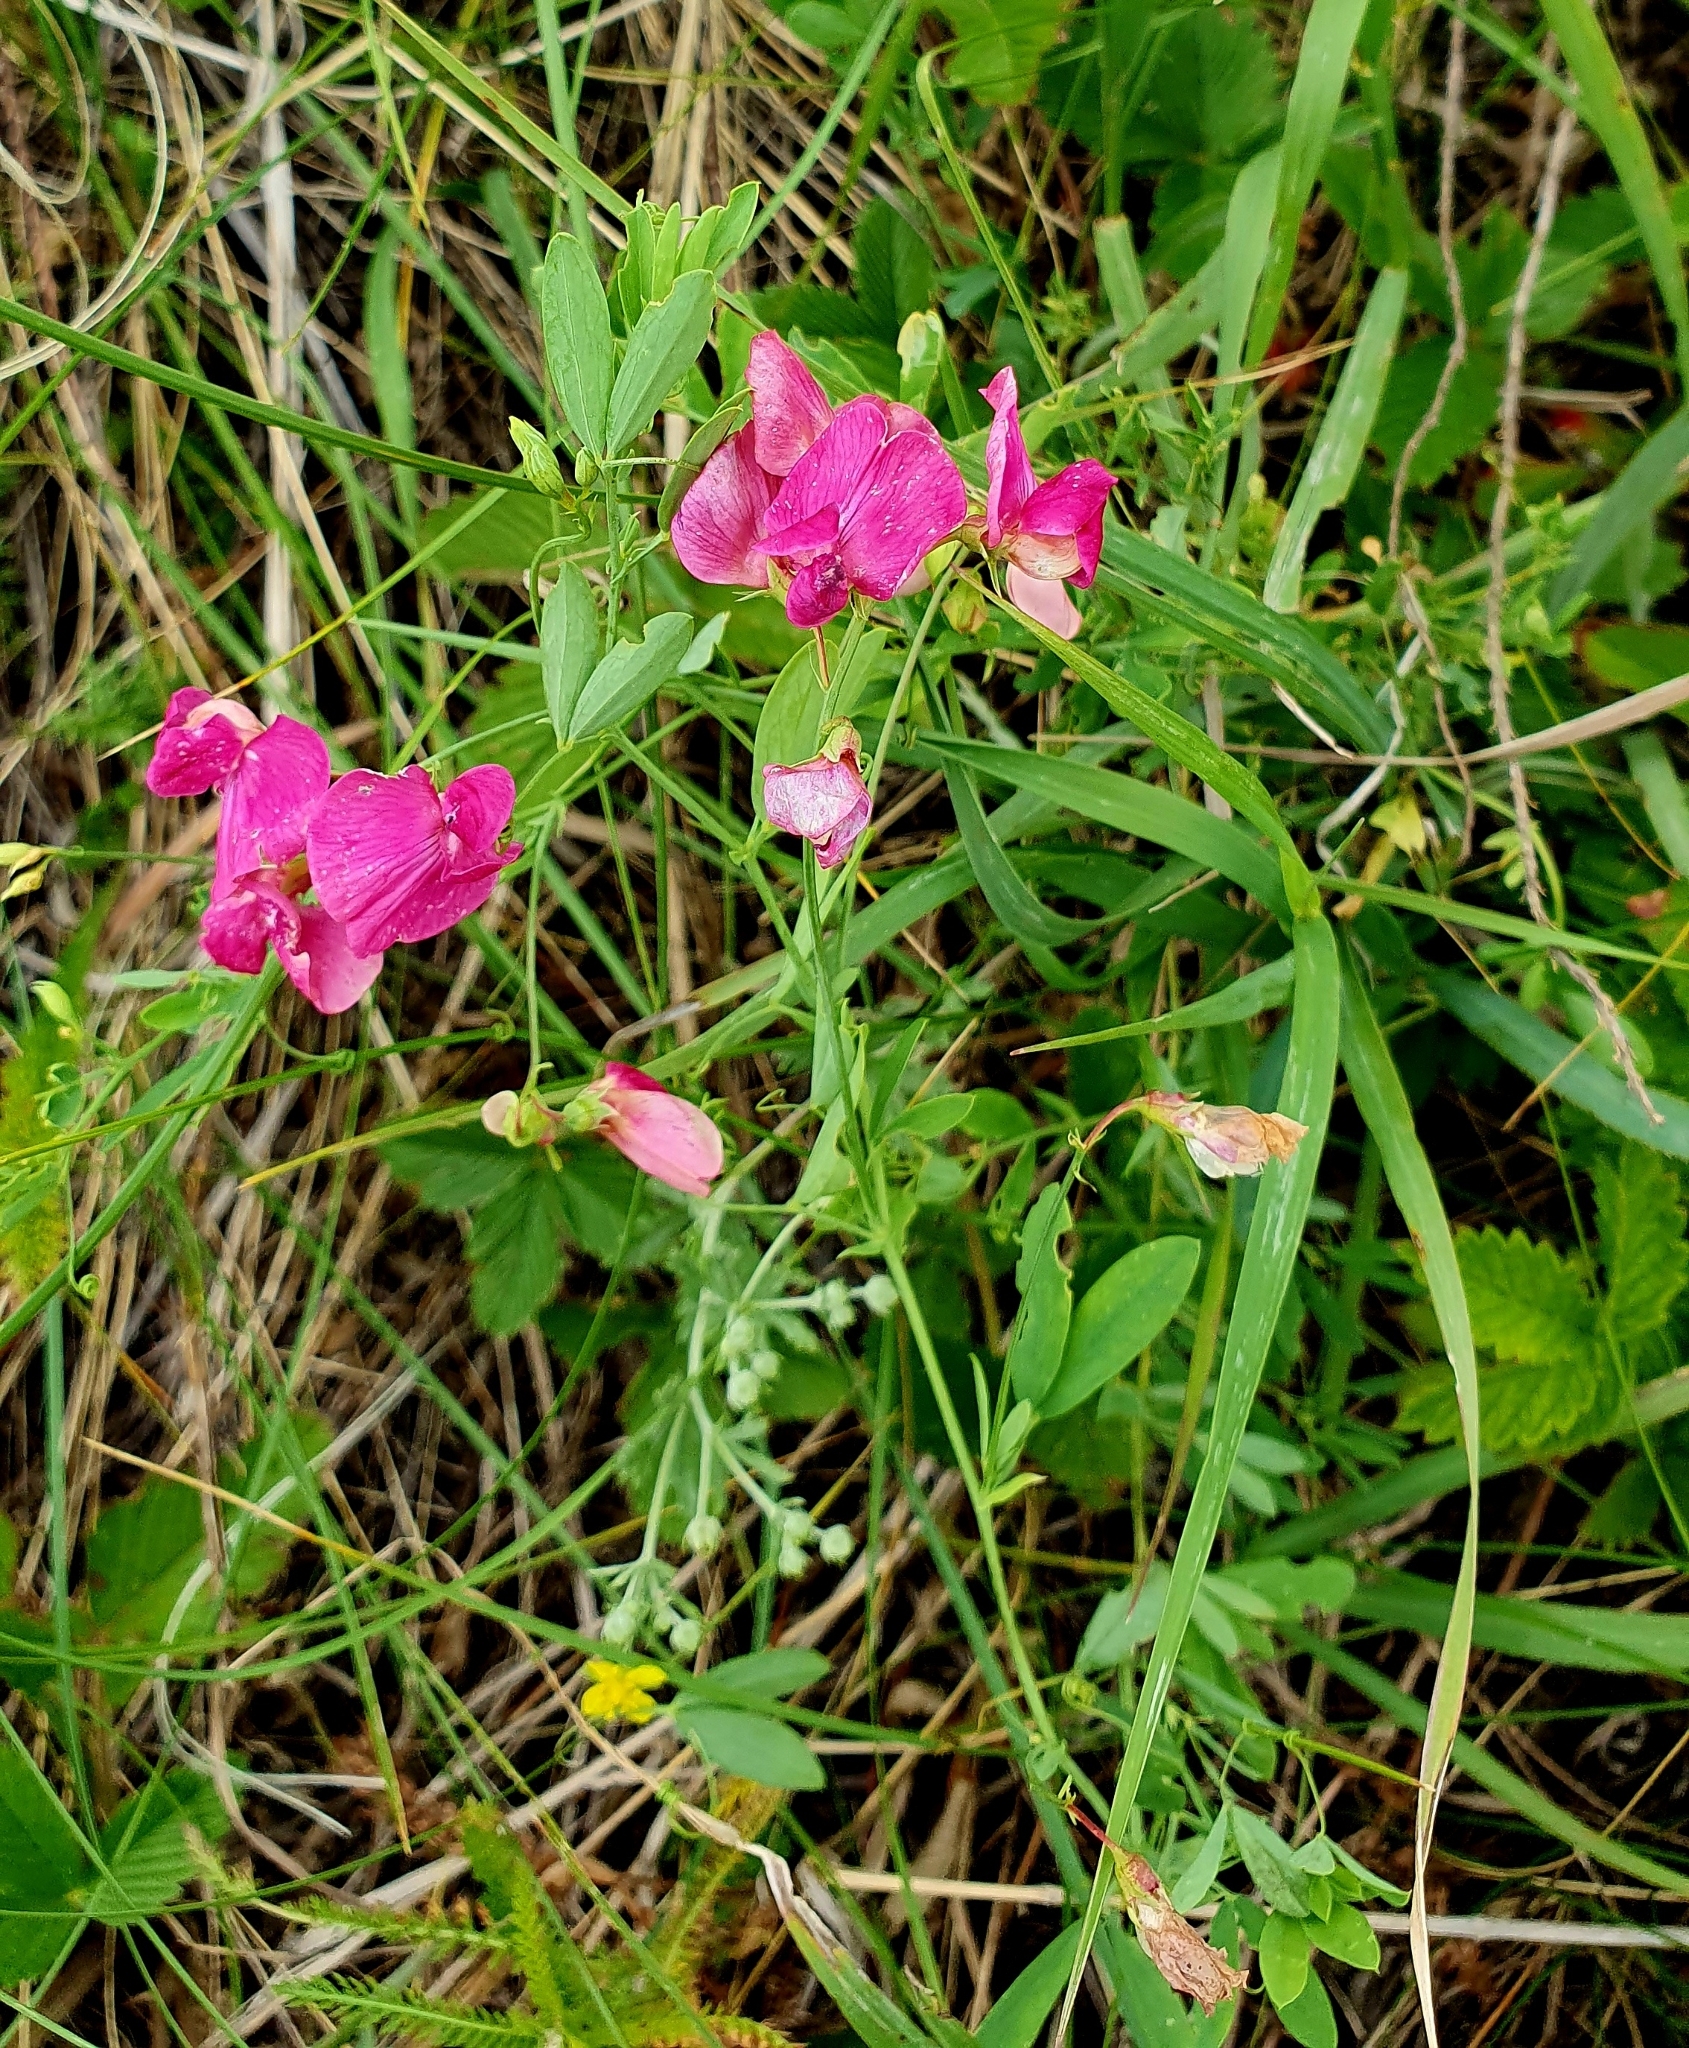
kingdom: Plantae
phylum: Tracheophyta
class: Magnoliopsida
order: Fabales
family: Fabaceae
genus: Lathyrus
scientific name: Lathyrus tuberosus
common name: Tuberous pea
